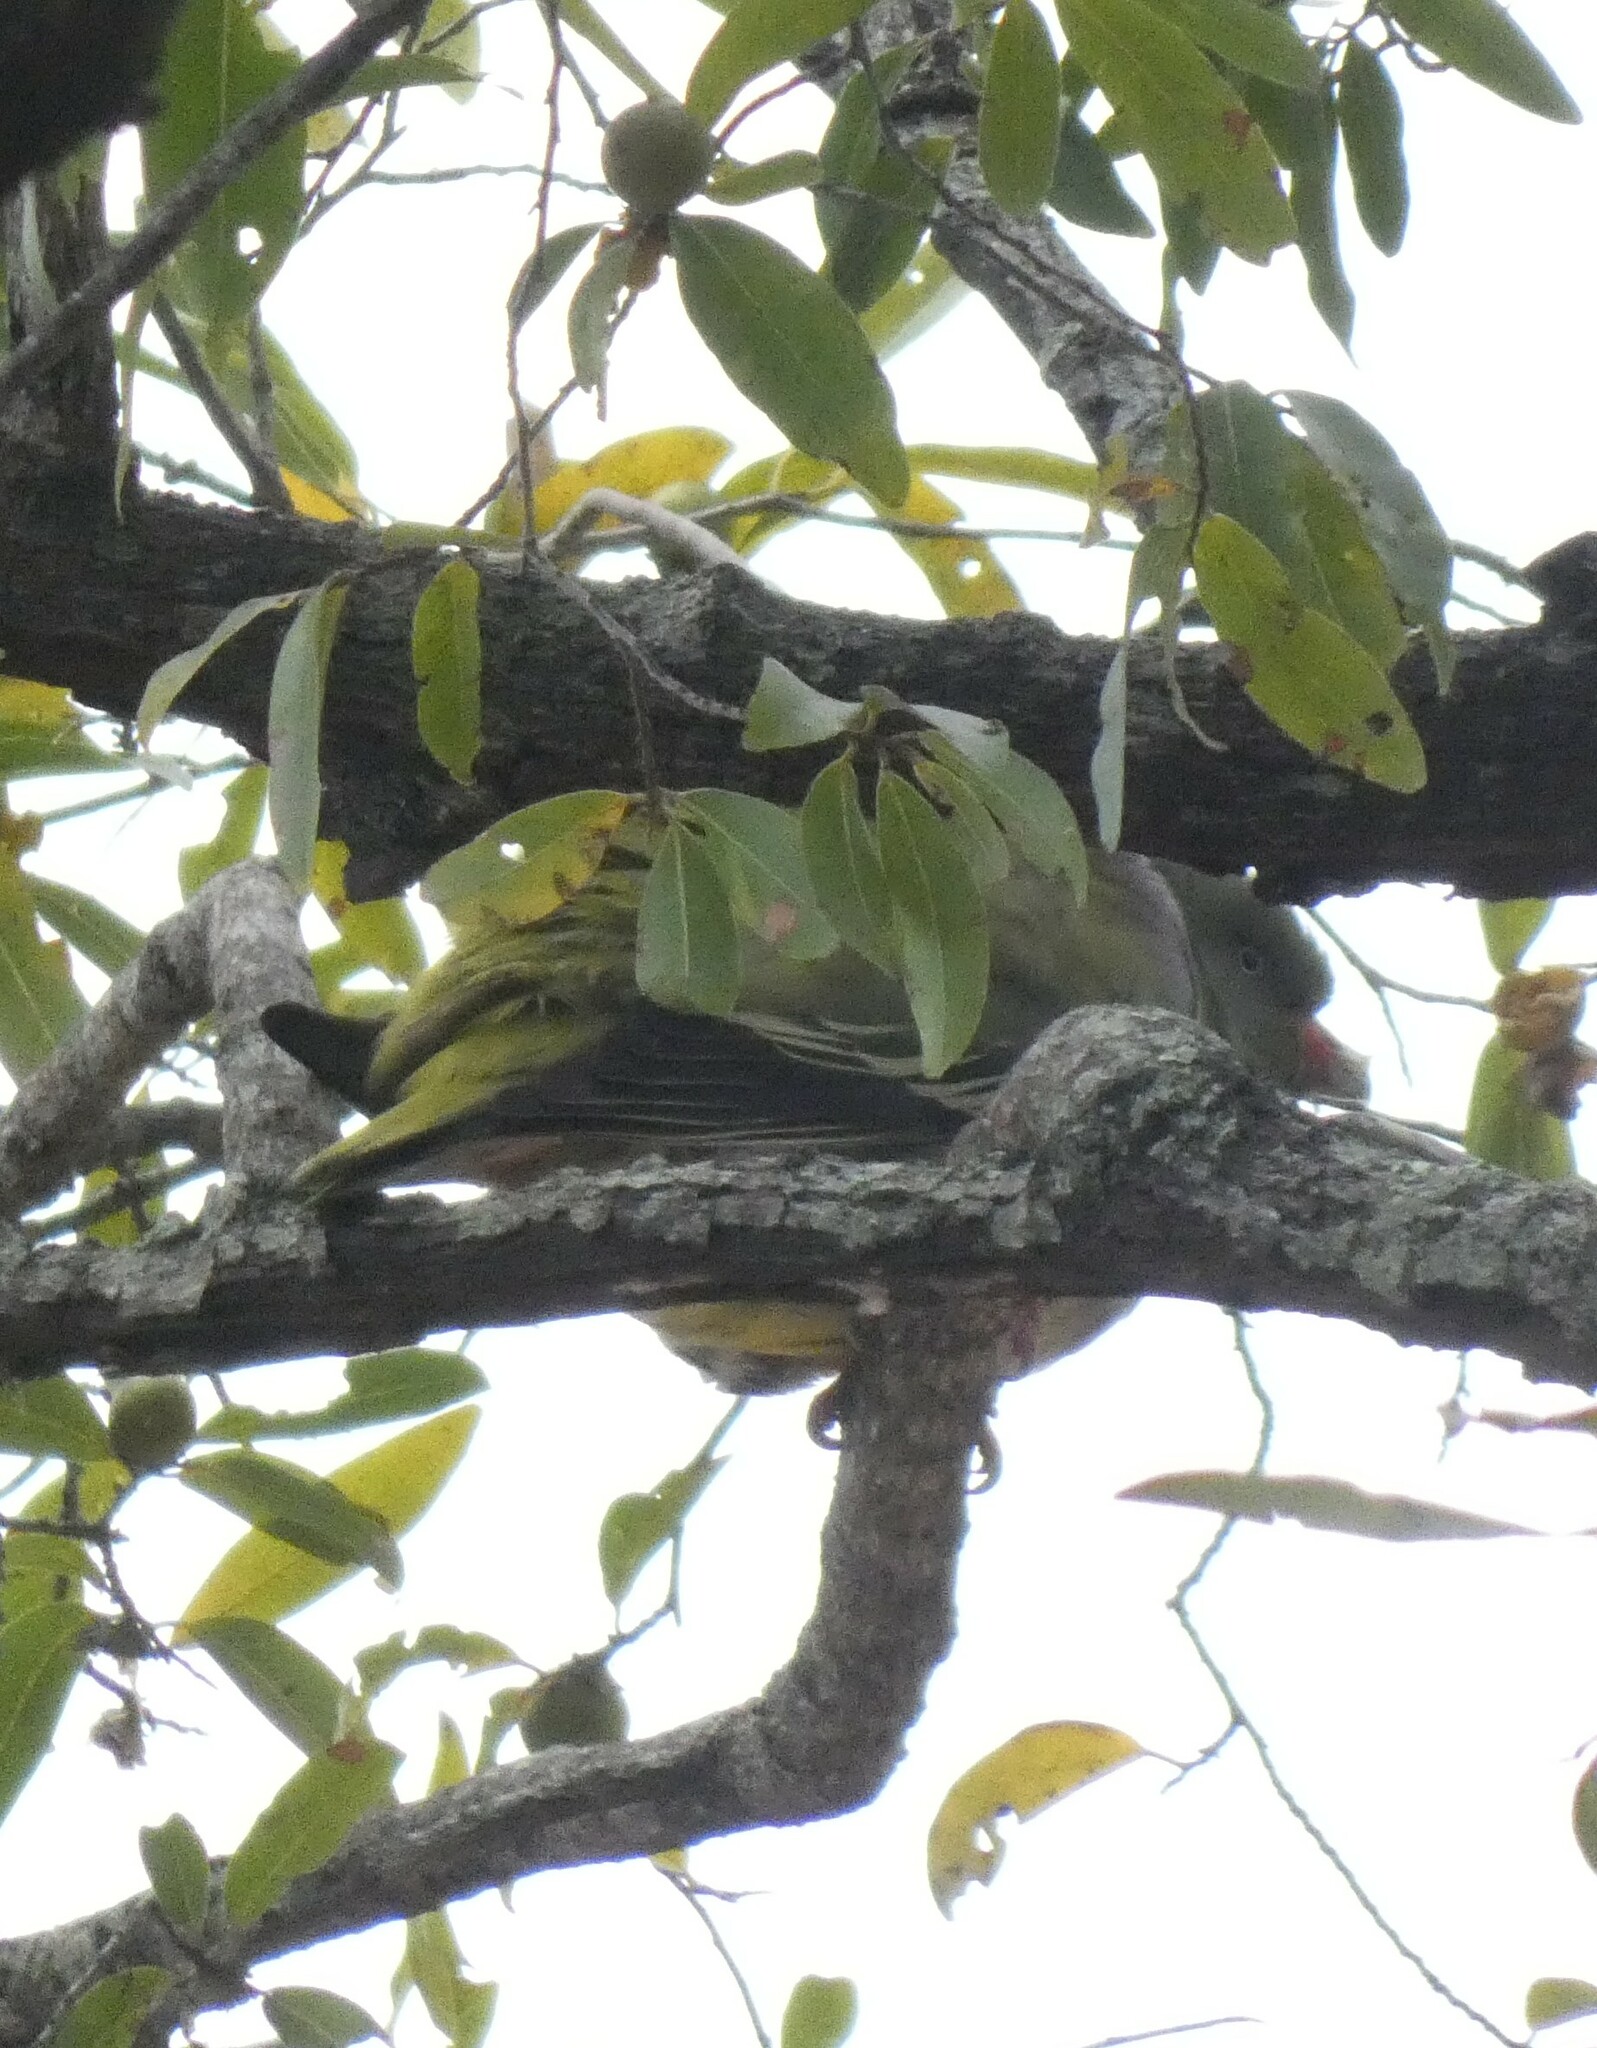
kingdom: Animalia
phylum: Chordata
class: Aves
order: Columbiformes
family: Columbidae
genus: Treron
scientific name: Treron calvus
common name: African green pigeon
